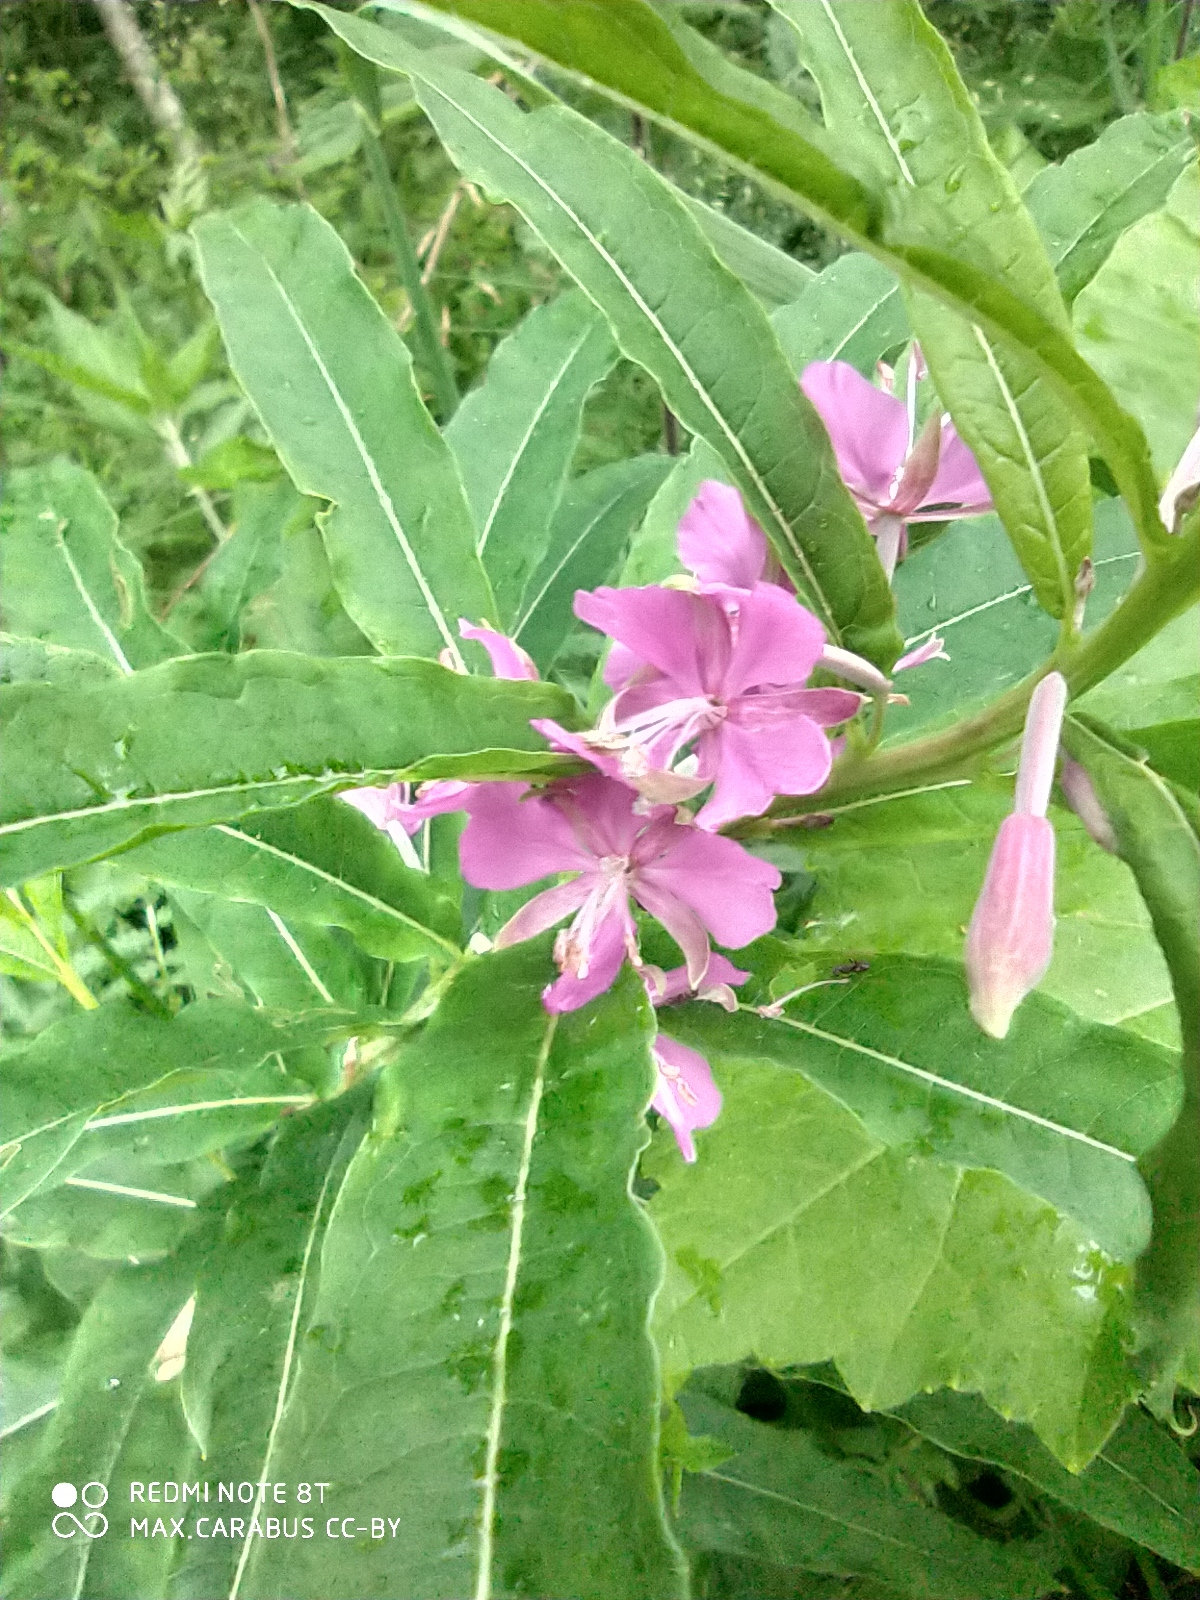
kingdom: Plantae
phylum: Tracheophyta
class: Magnoliopsida
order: Myrtales
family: Onagraceae
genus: Chamaenerion
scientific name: Chamaenerion angustifolium
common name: Fireweed
